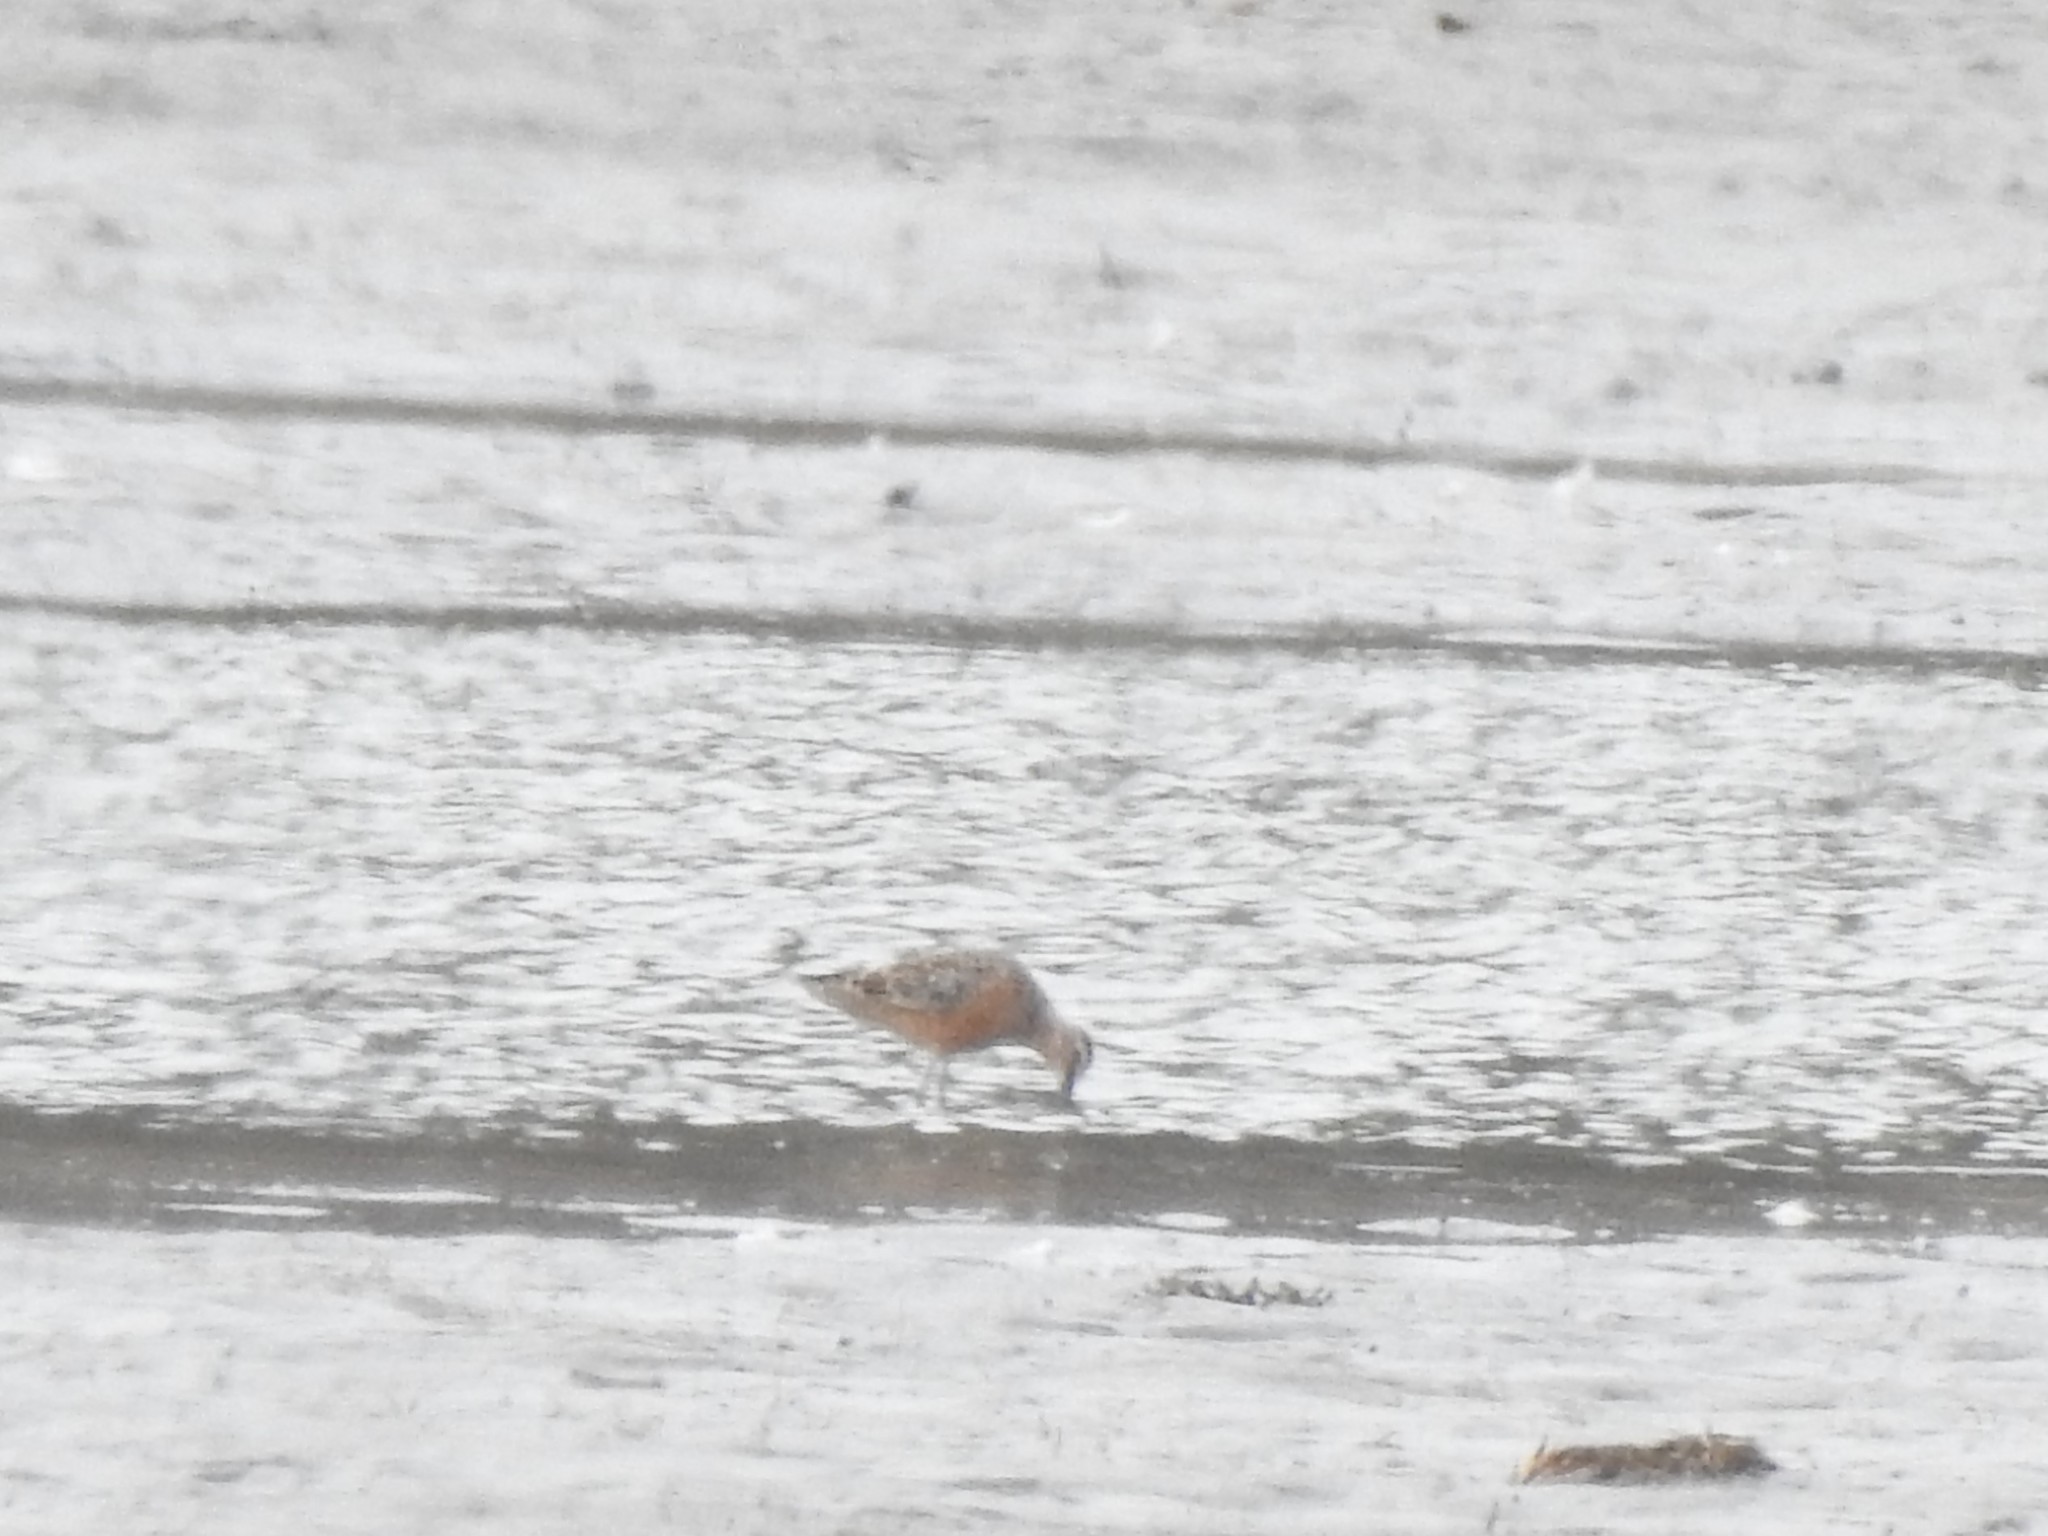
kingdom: Animalia
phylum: Chordata
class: Aves
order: Charadriiformes
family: Scolopacidae
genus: Limnodromus
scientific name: Limnodromus
